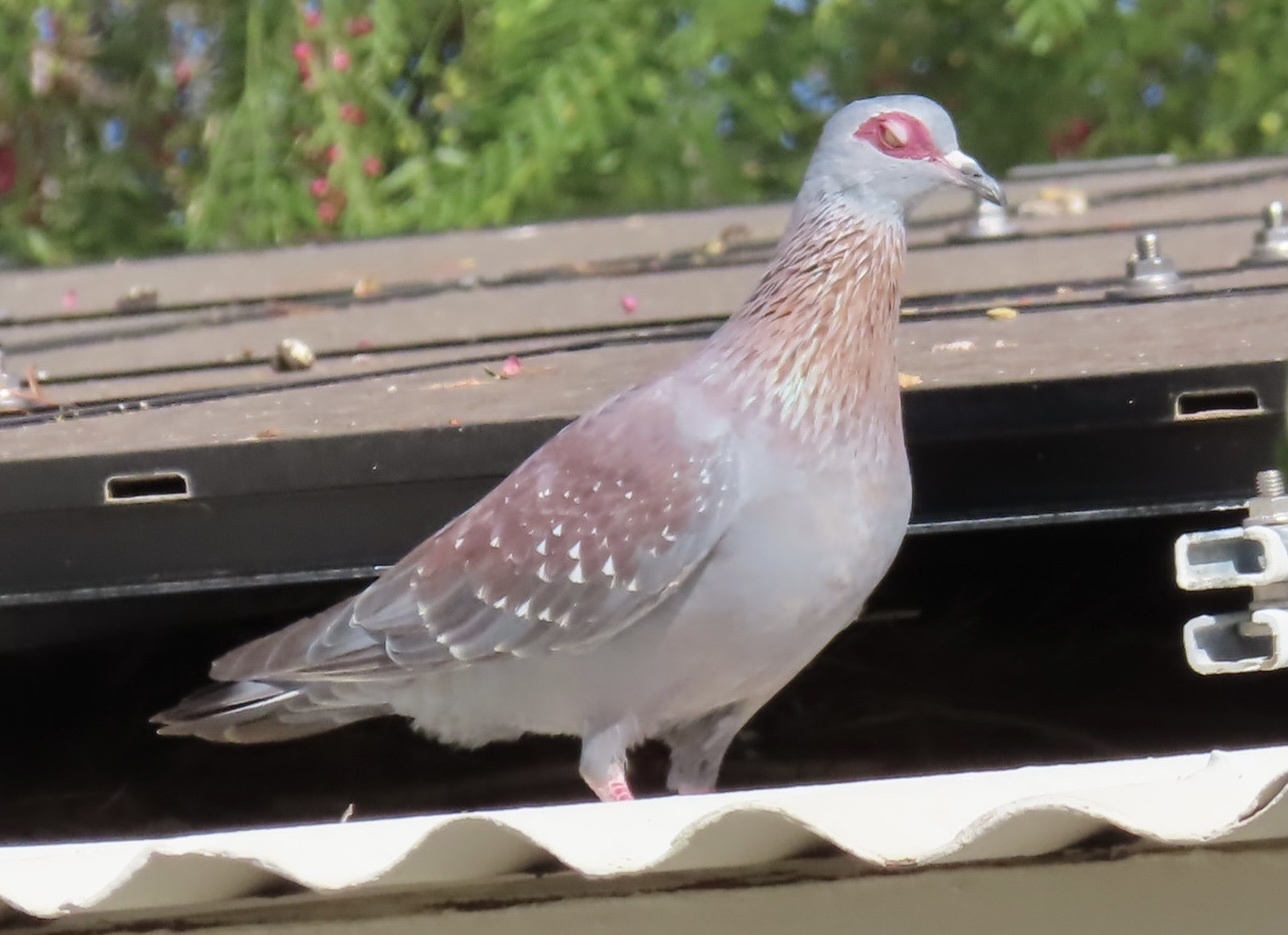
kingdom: Animalia
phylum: Chordata
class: Aves
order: Columbiformes
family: Columbidae
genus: Columba
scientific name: Columba guinea
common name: Speckled pigeon
